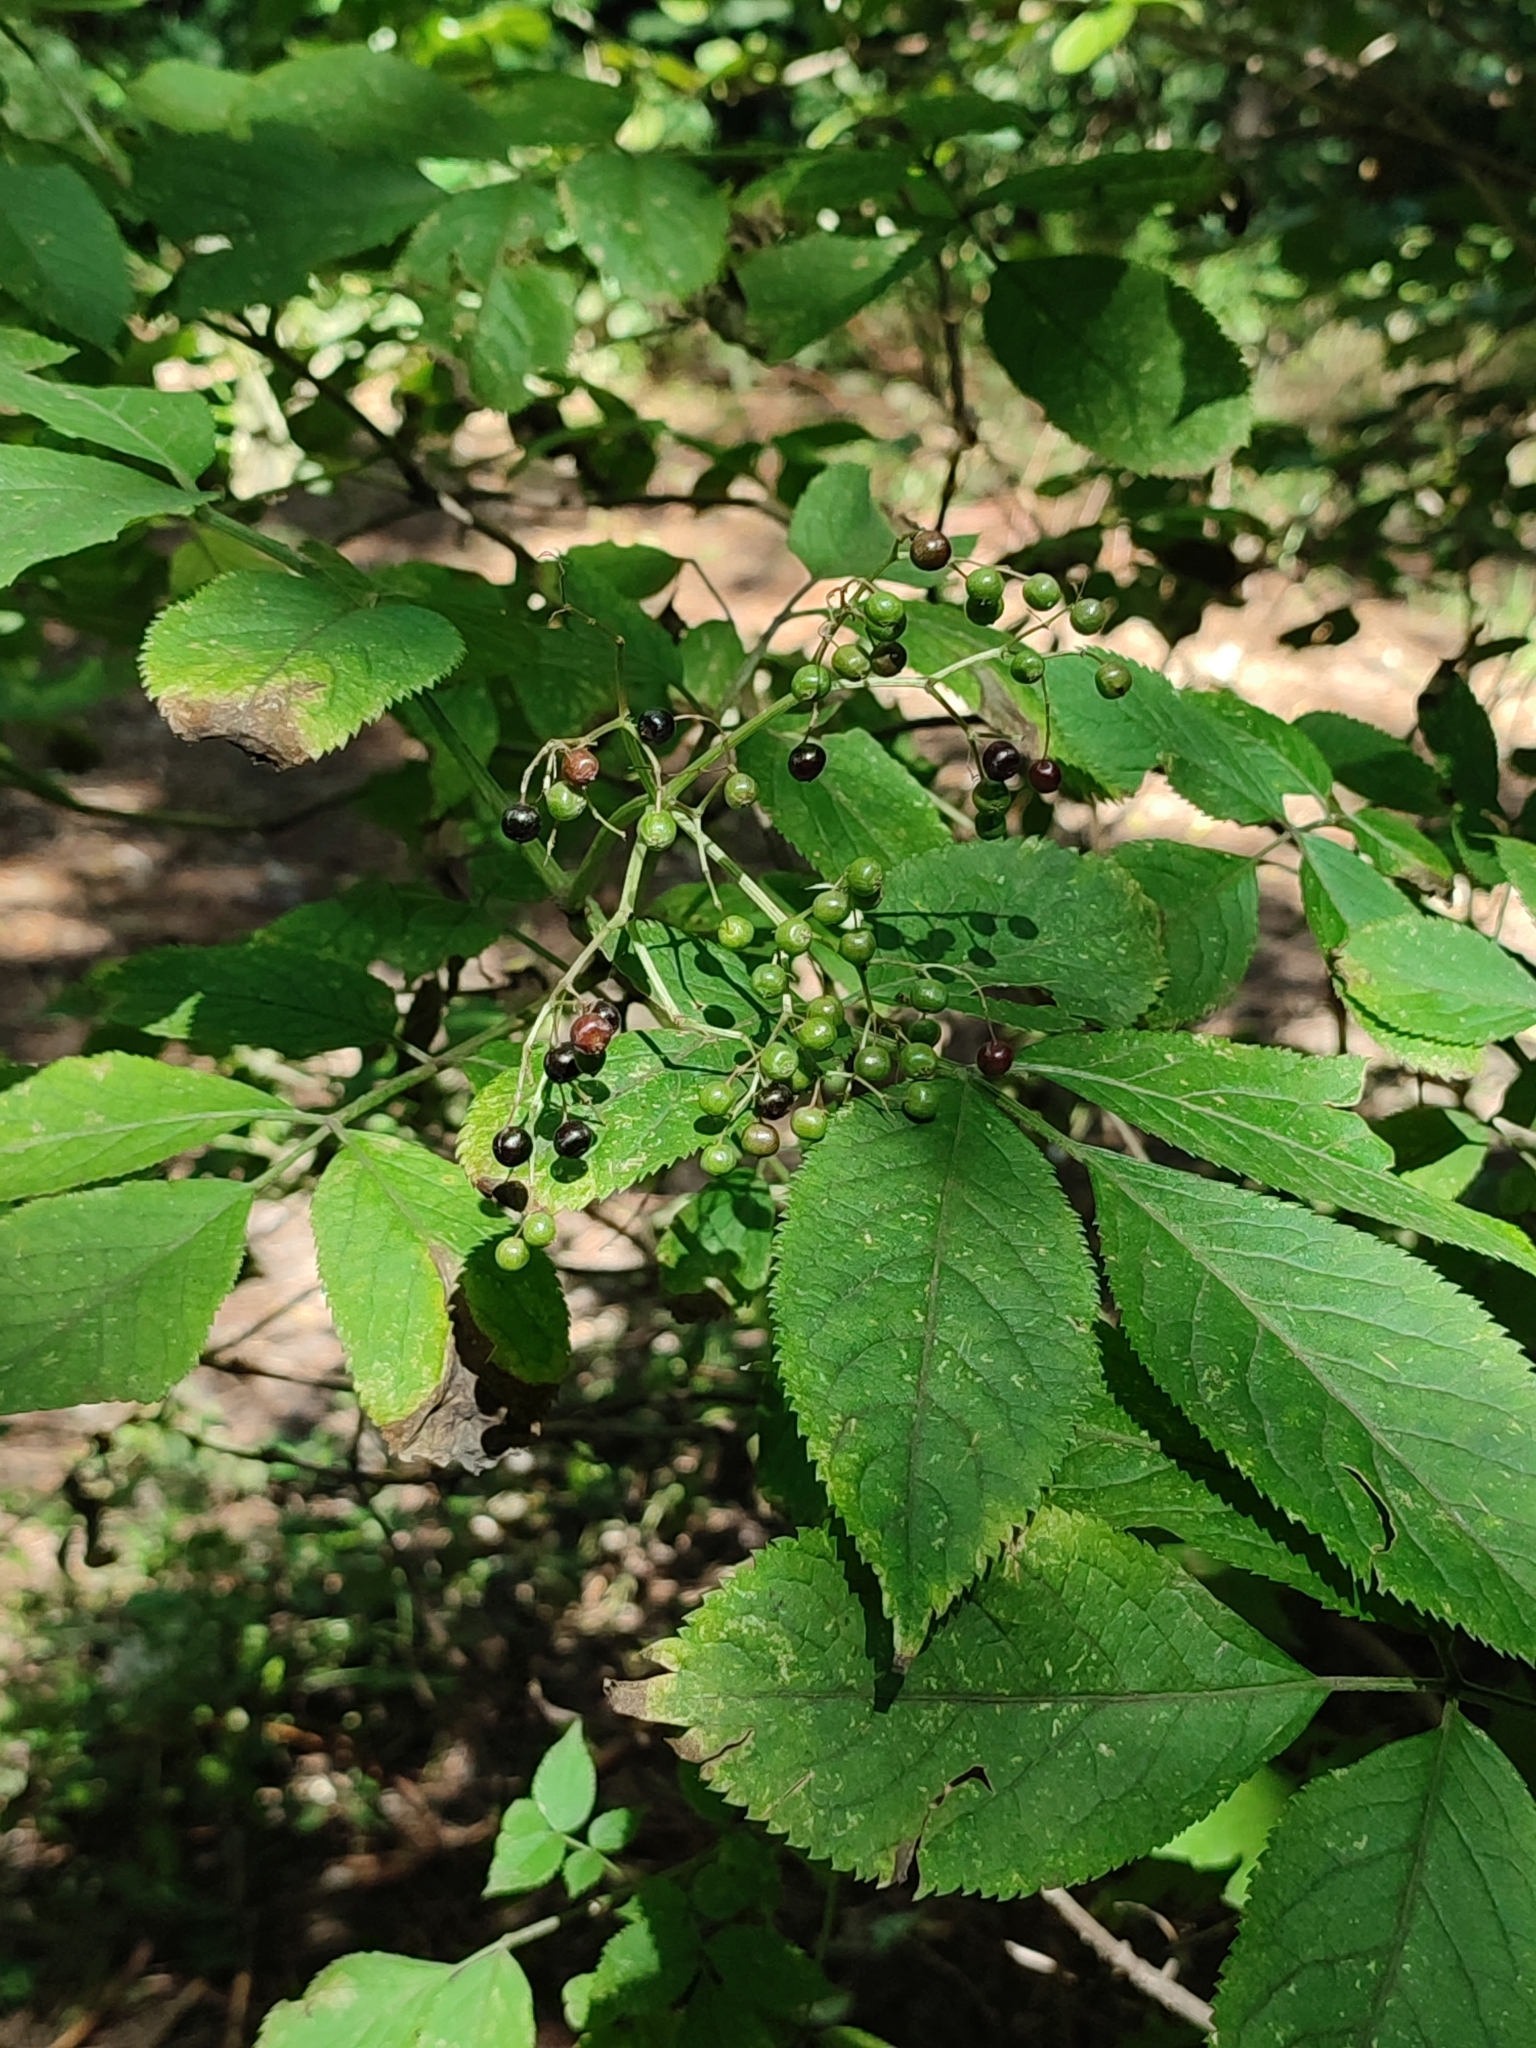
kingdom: Plantae
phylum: Tracheophyta
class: Magnoliopsida
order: Dipsacales
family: Viburnaceae
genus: Sambucus
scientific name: Sambucus nigra
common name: Elder
